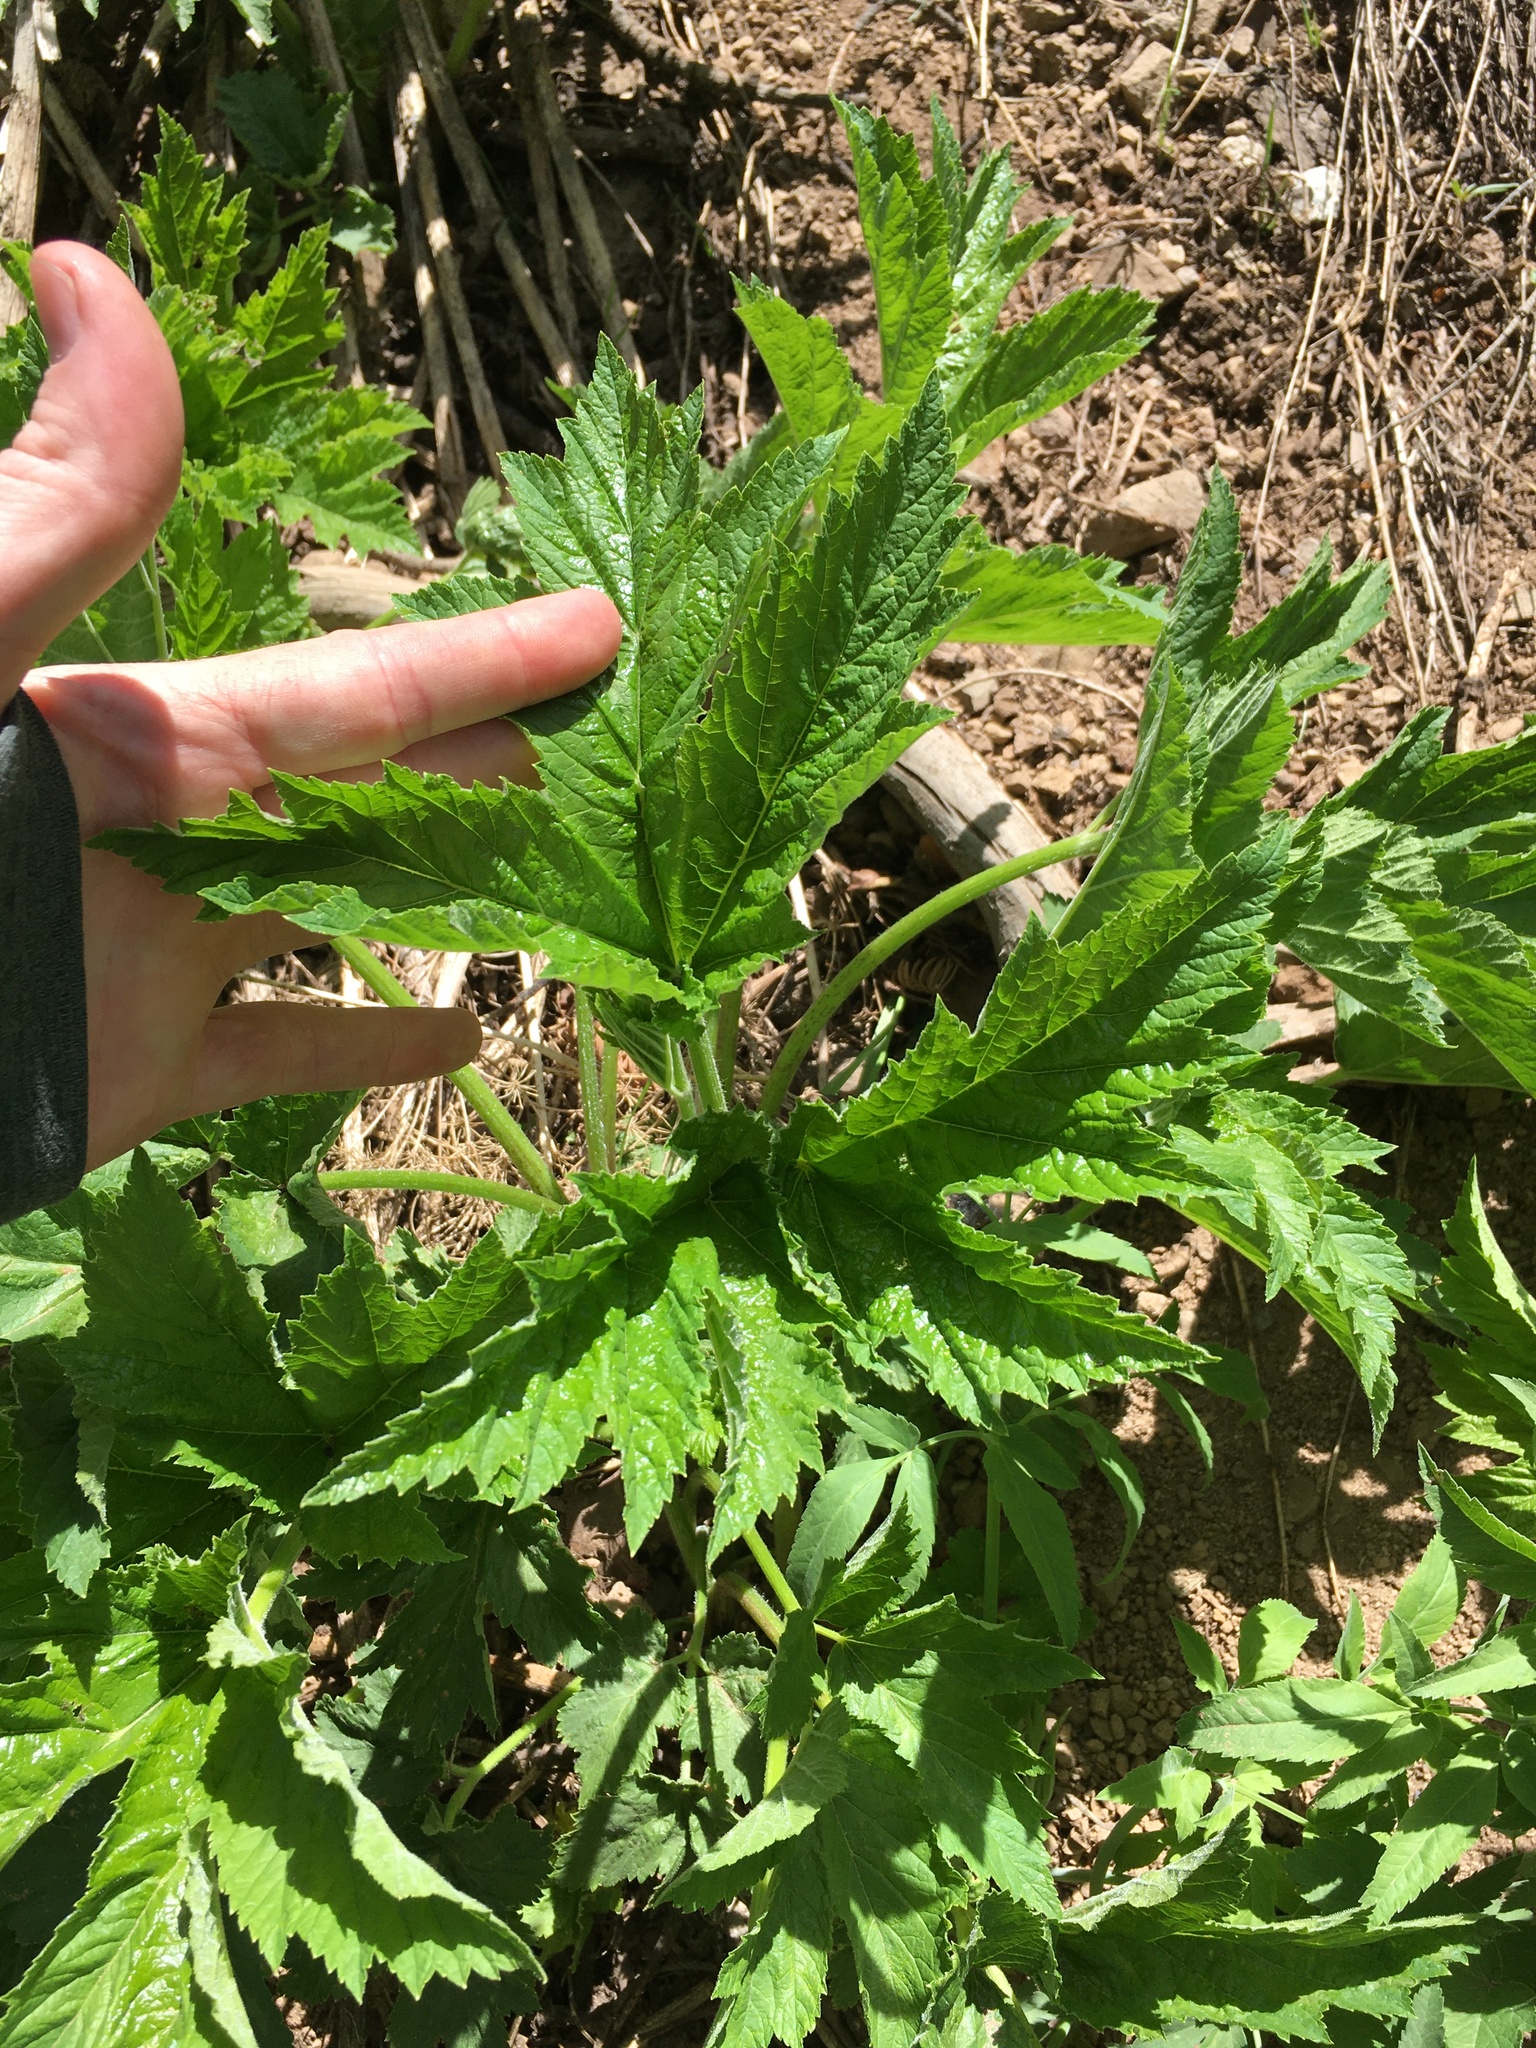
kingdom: Plantae
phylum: Tracheophyta
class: Magnoliopsida
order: Apiales
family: Apiaceae
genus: Heracleum
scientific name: Heracleum maximum
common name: American cow parsnip
